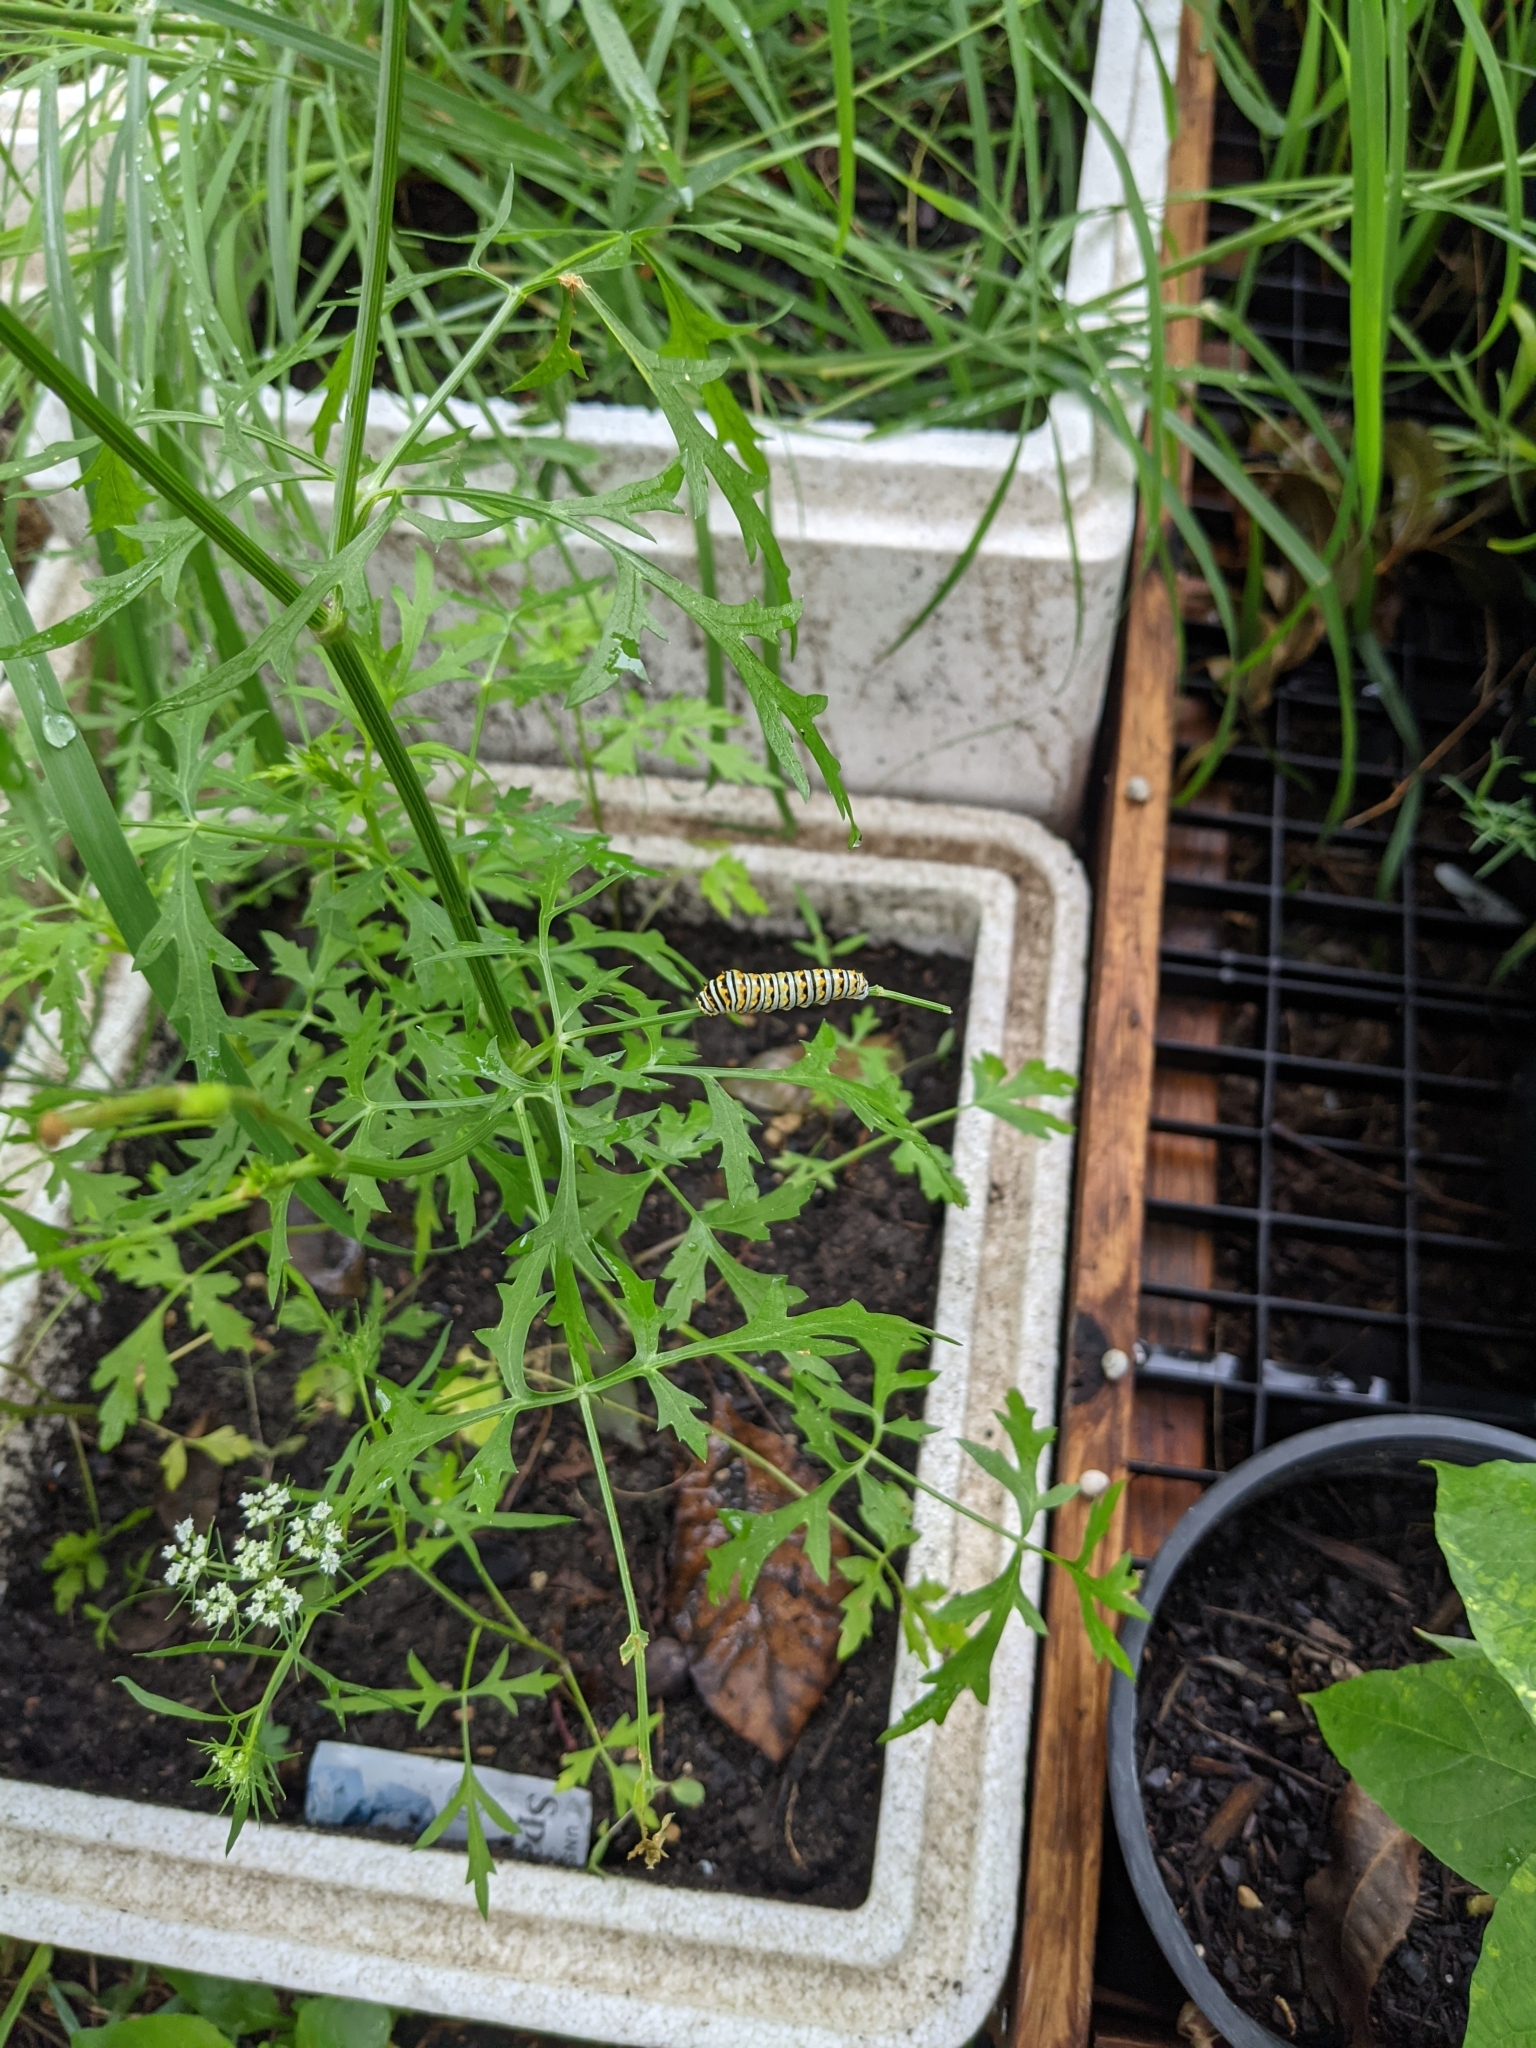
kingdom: Animalia
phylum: Arthropoda
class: Insecta
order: Lepidoptera
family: Papilionidae
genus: Papilio
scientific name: Papilio polyxenes
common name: Black swallowtail
